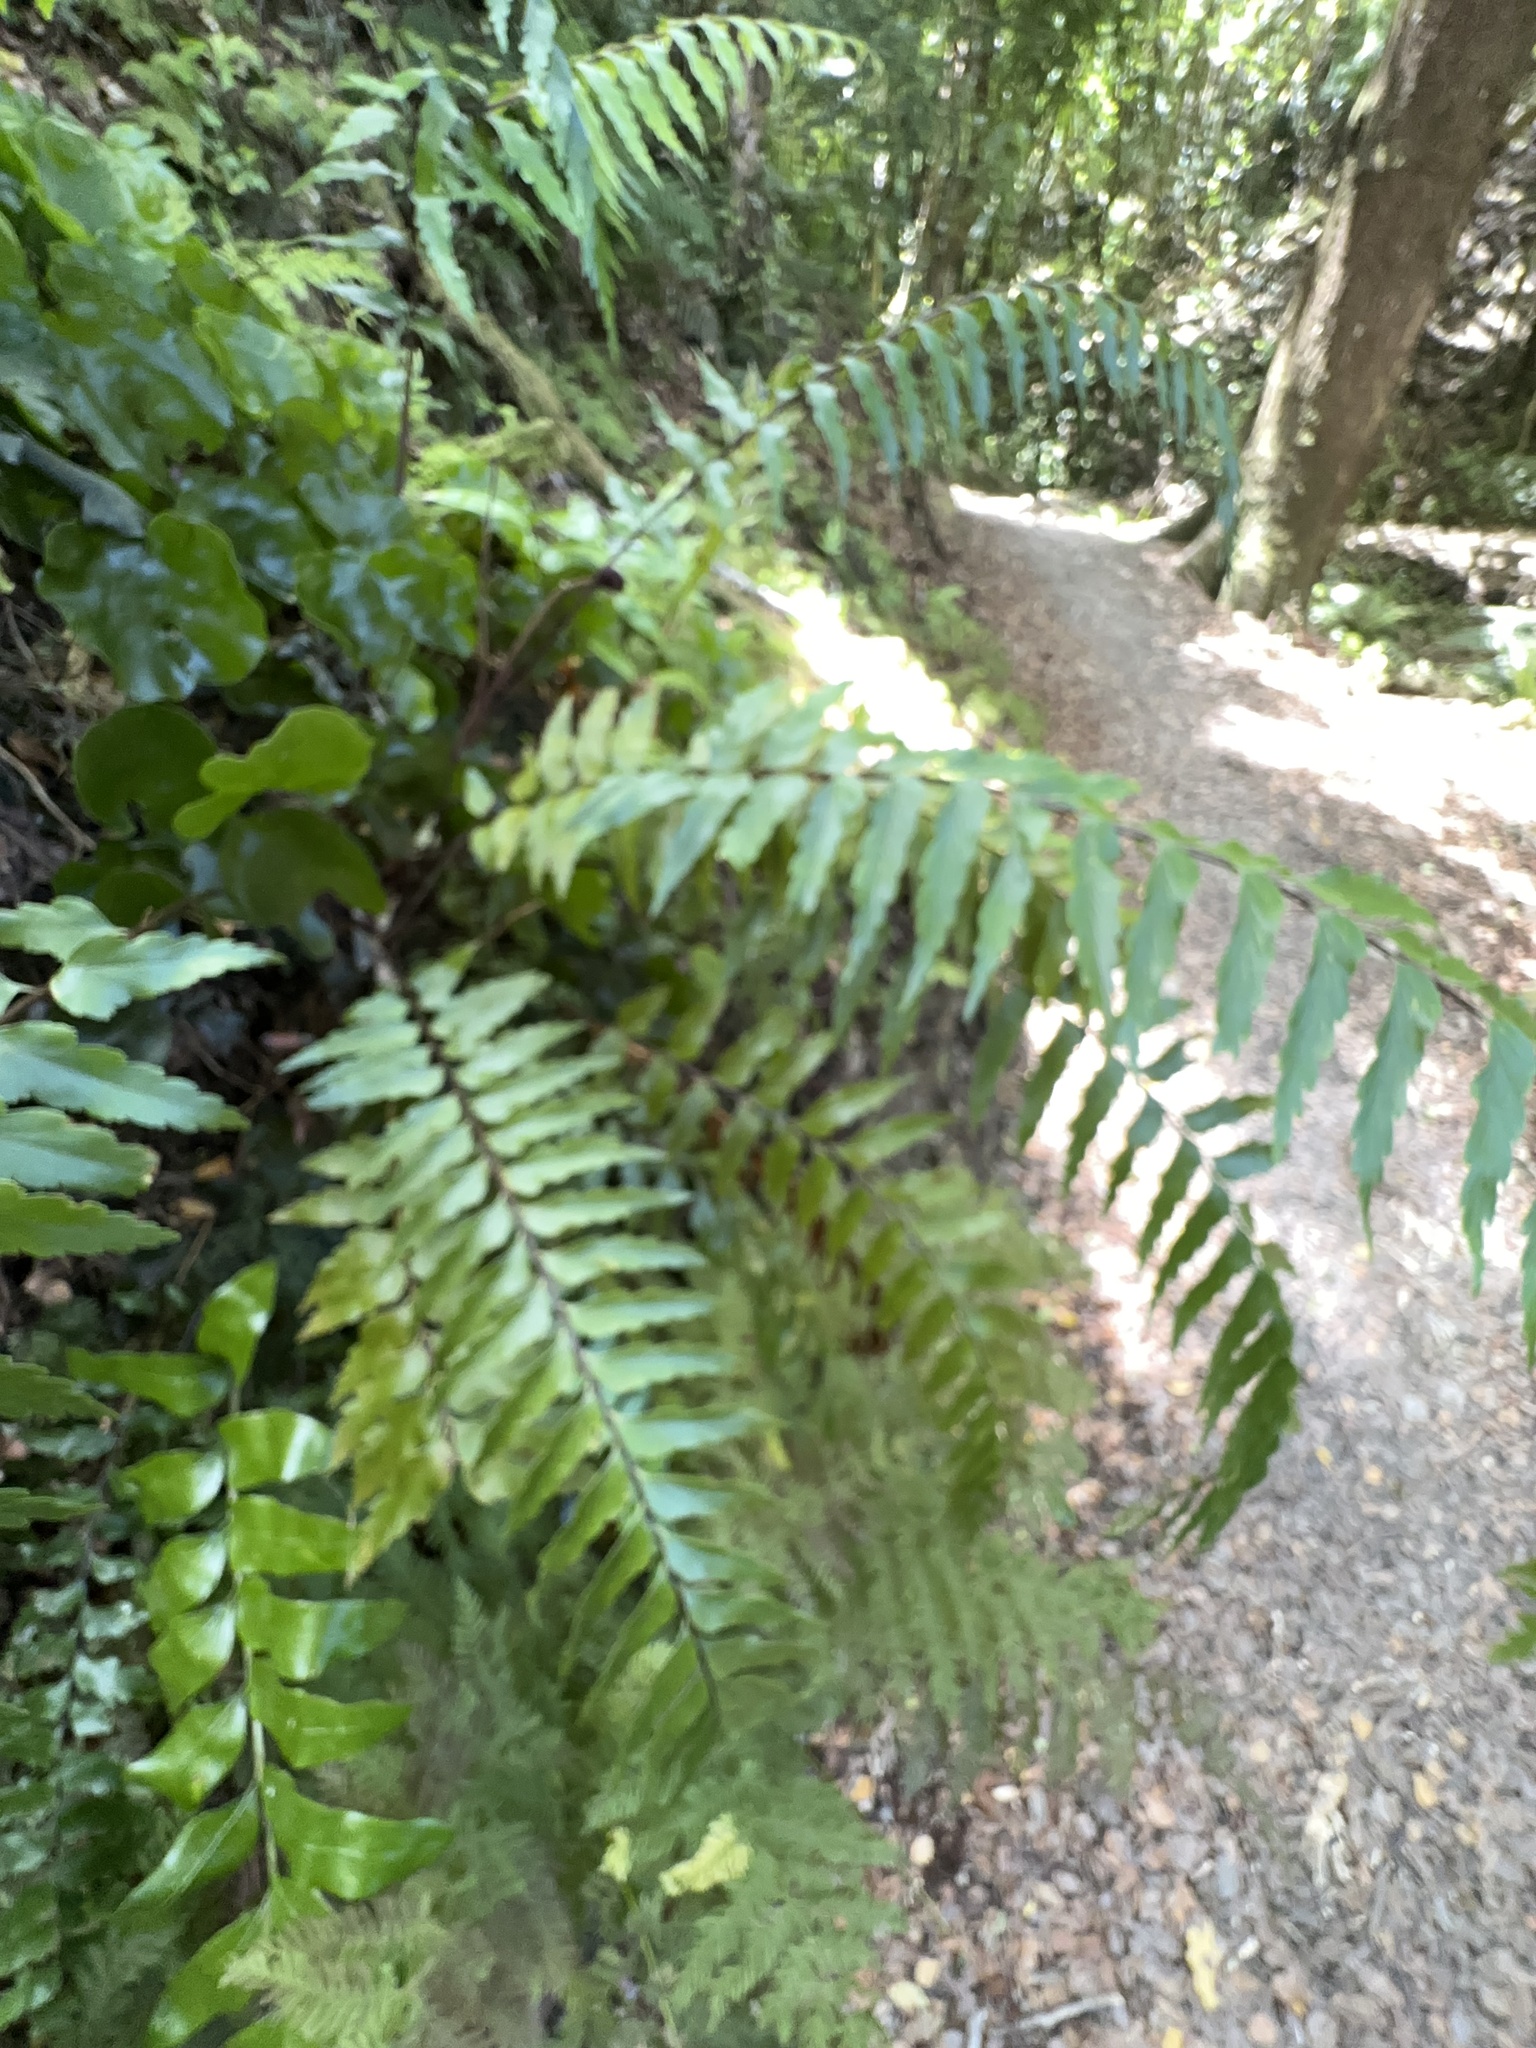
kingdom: Plantae
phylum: Tracheophyta
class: Polypodiopsida
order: Polypodiales
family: Aspleniaceae
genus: Asplenium
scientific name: Asplenium polyodon
